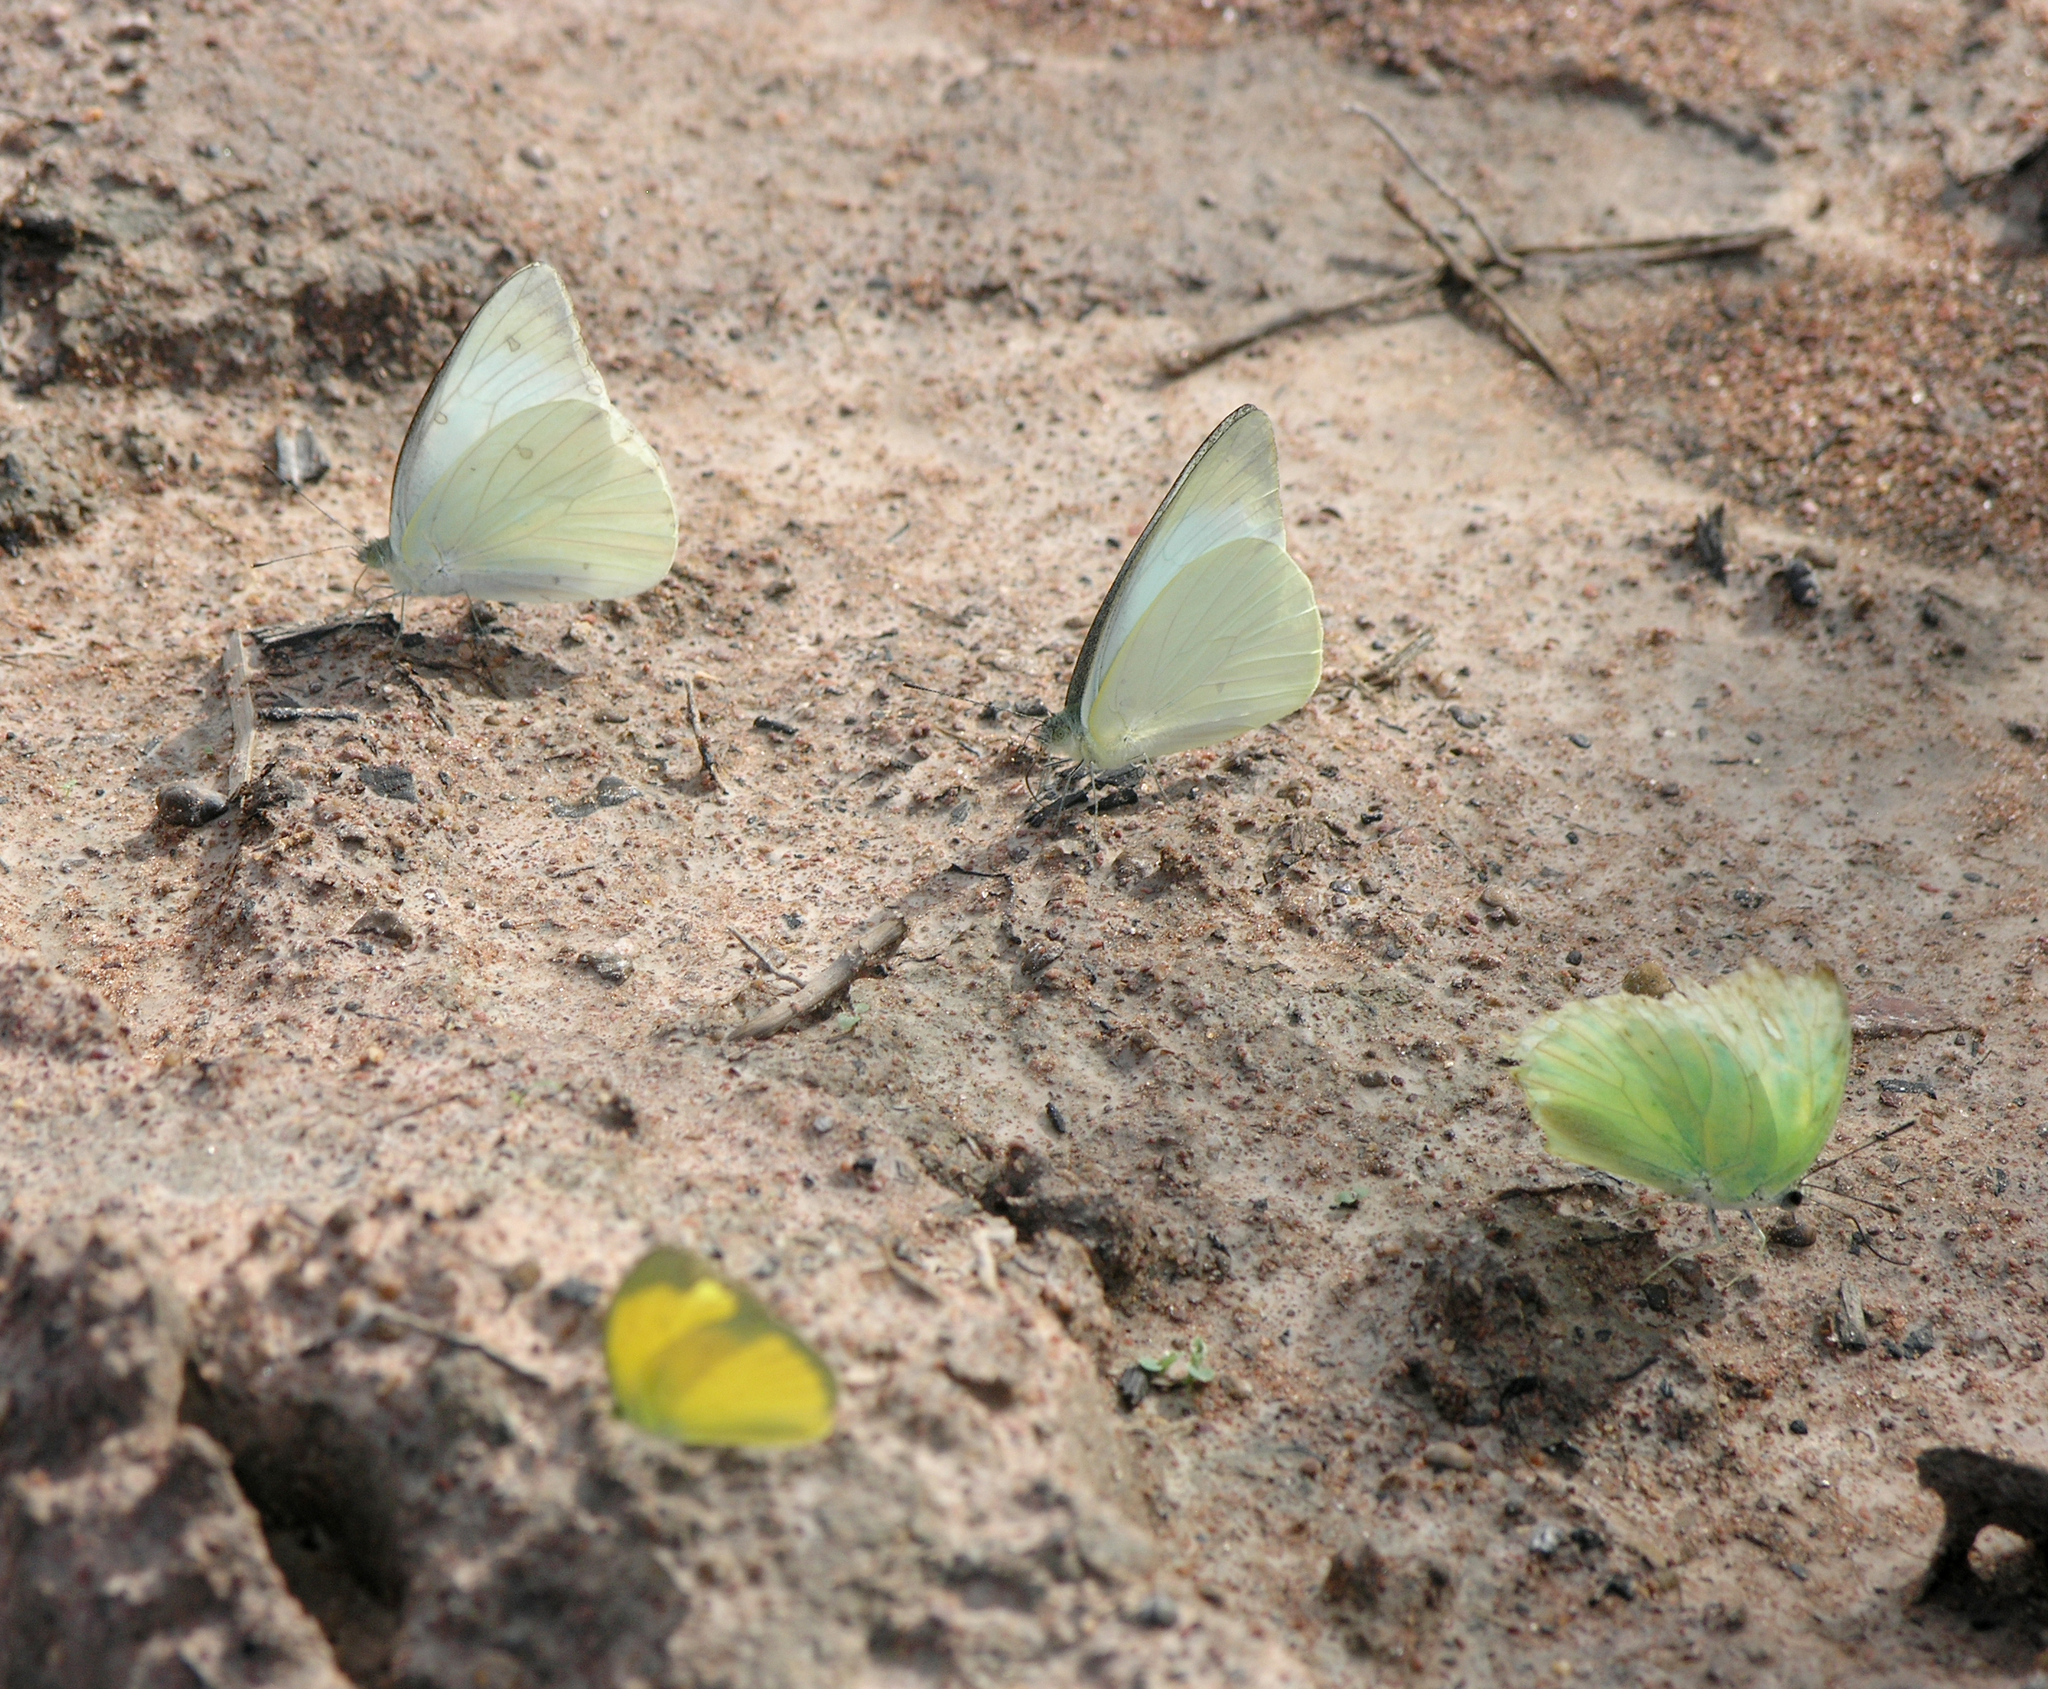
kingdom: Animalia
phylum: Arthropoda
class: Insecta
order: Lepidoptera
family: Pieridae
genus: Appias
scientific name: Appias albina
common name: Common albatross
